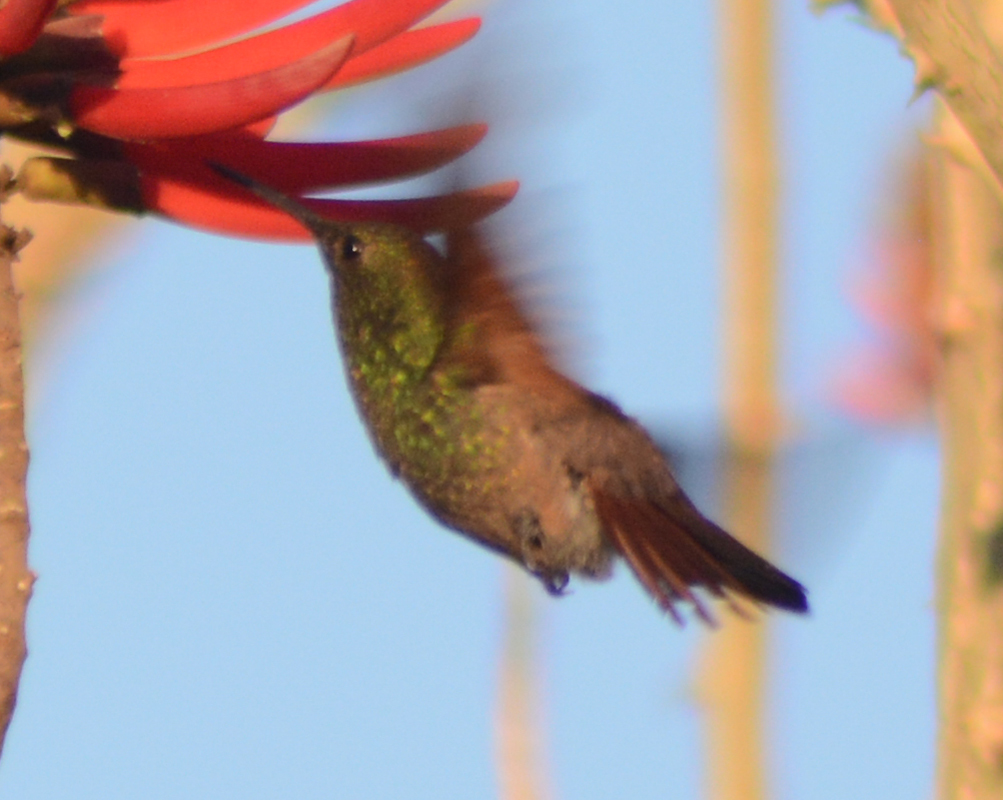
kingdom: Animalia
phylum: Chordata
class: Aves
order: Apodiformes
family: Trochilidae
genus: Saucerottia
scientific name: Saucerottia beryllina
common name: Berylline hummingbird
